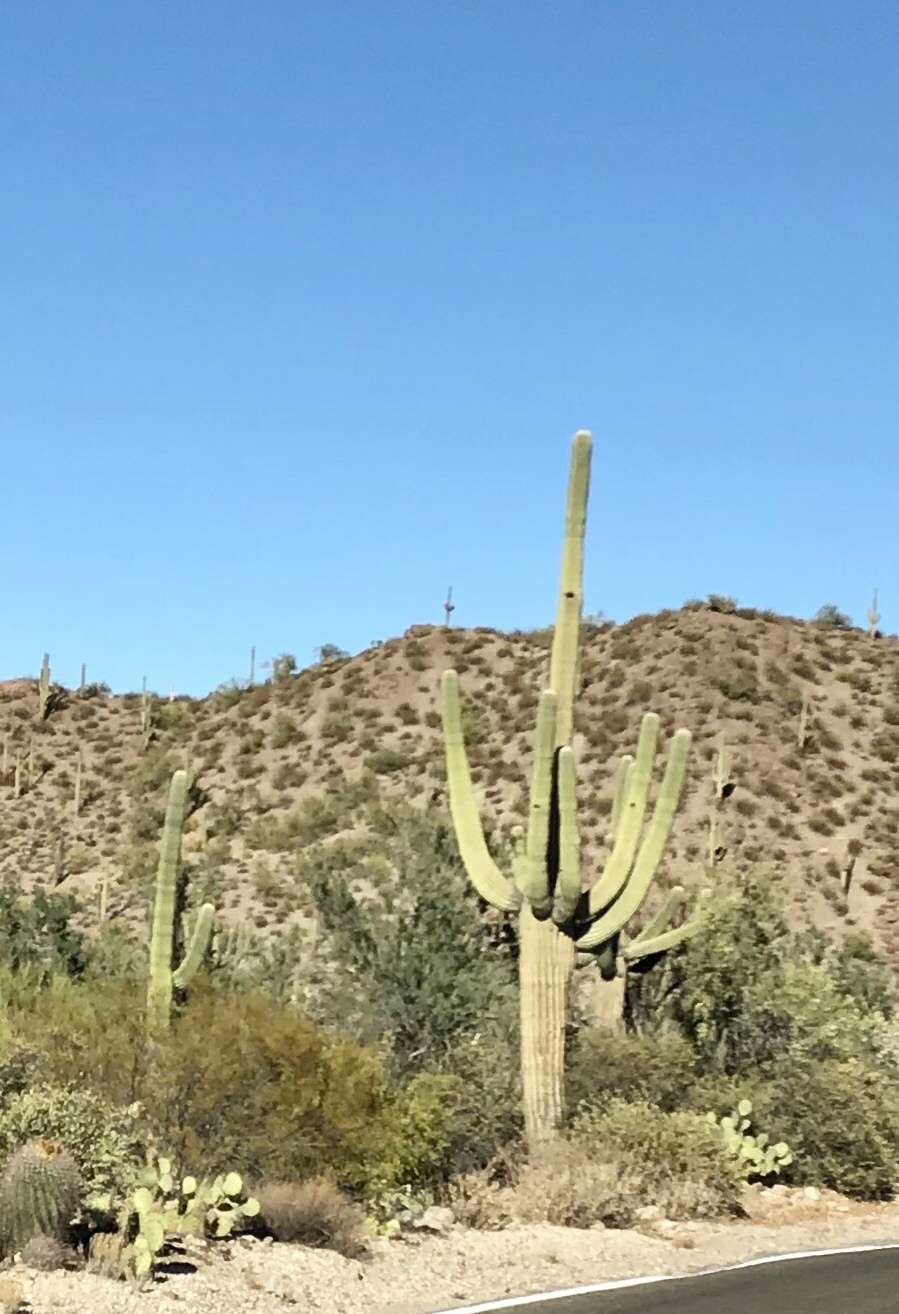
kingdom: Plantae
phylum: Tracheophyta
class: Magnoliopsida
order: Caryophyllales
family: Cactaceae
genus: Carnegiea
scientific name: Carnegiea gigantea
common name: Saguaro
